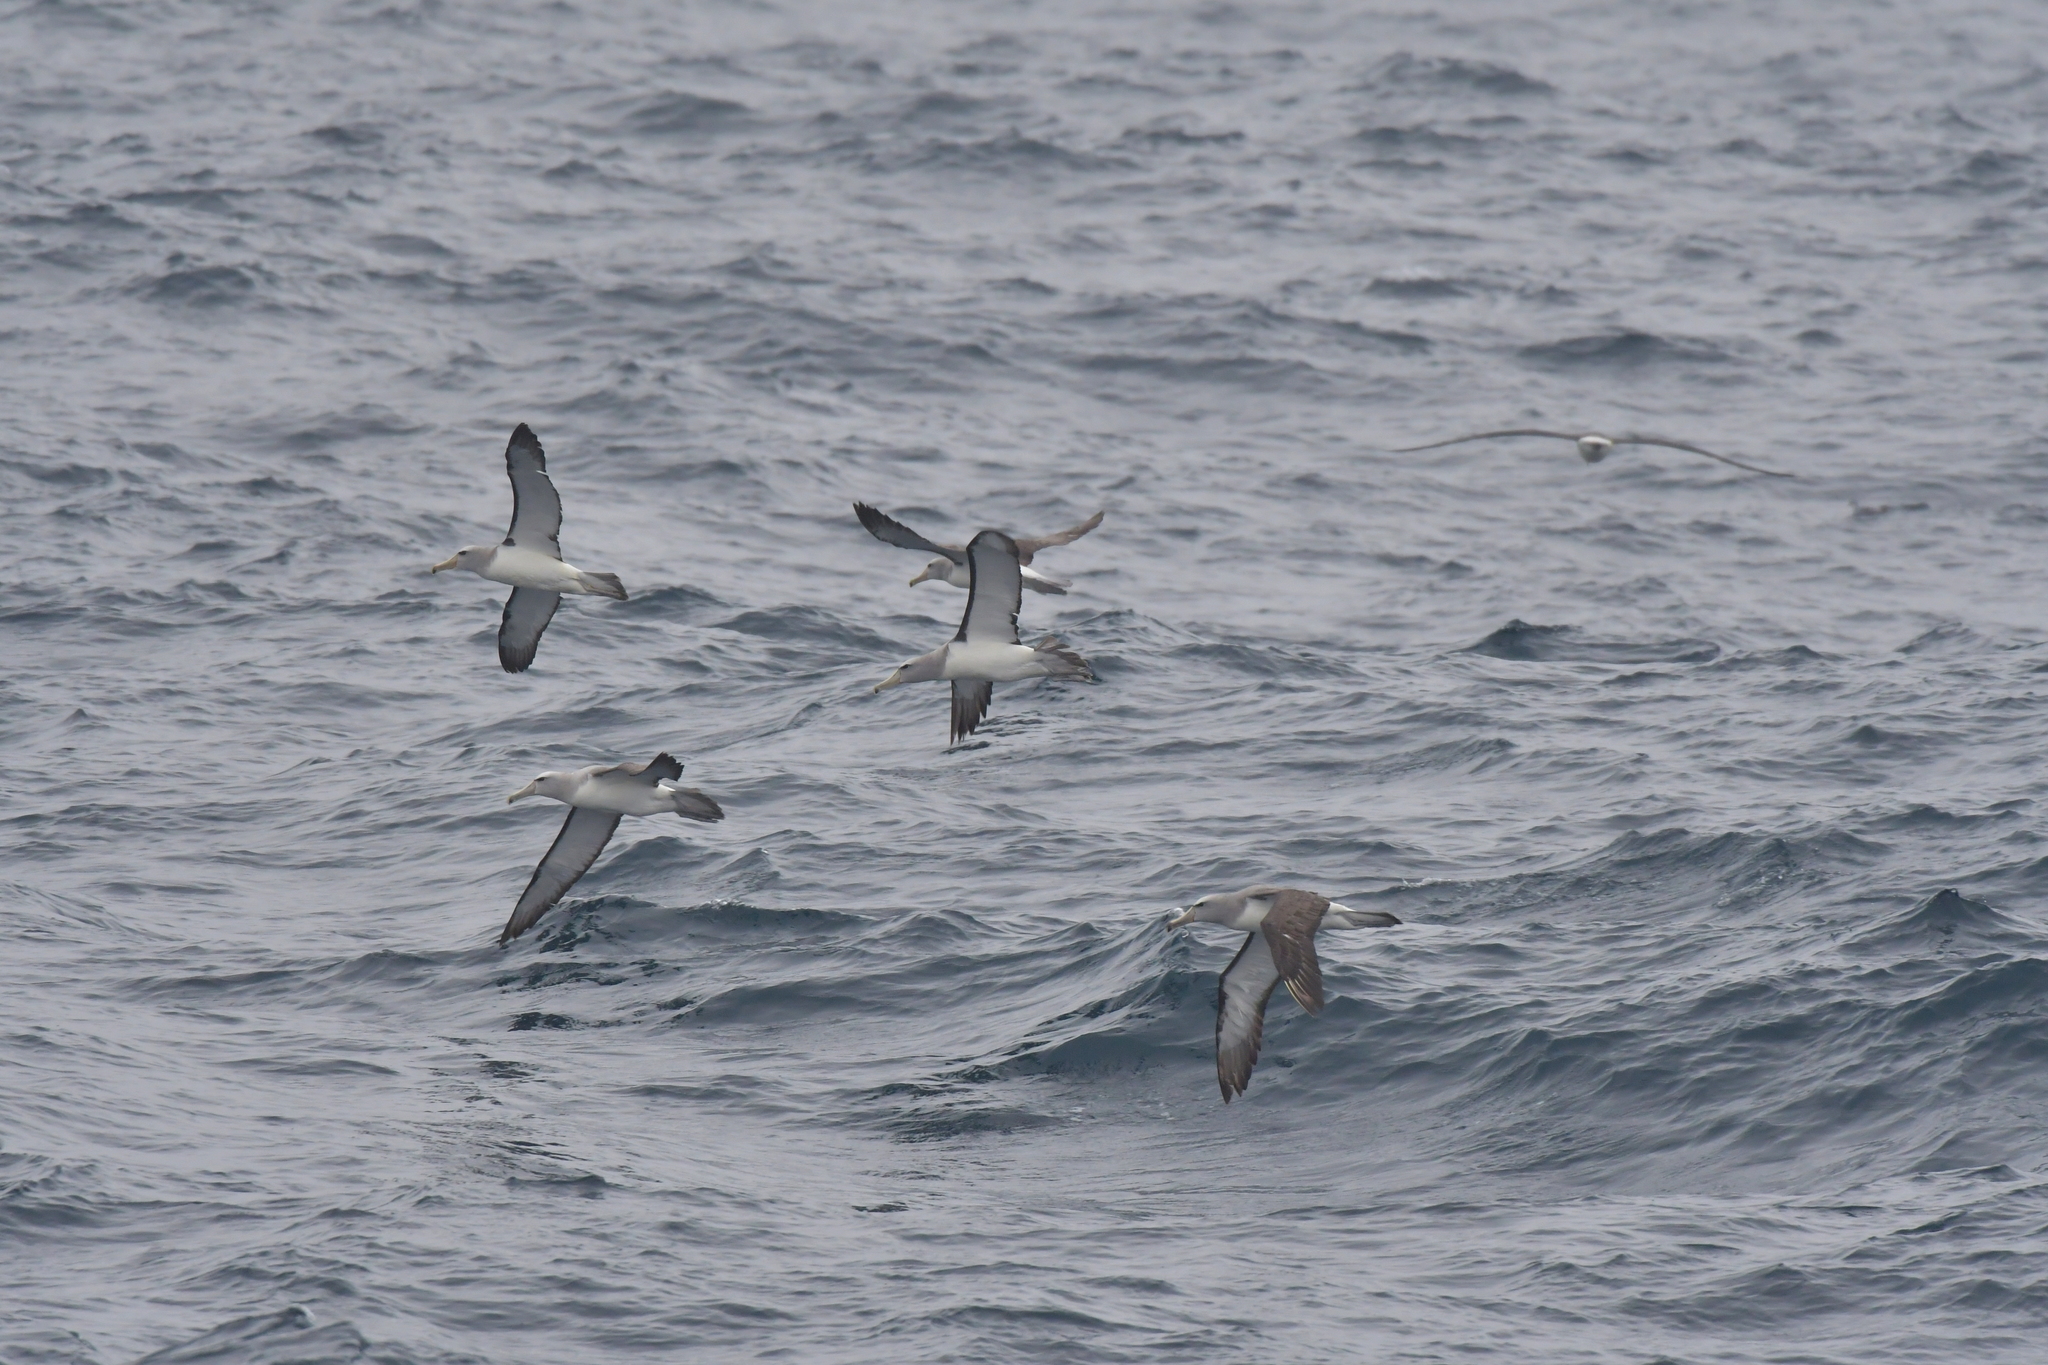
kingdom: Animalia
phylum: Chordata
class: Aves
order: Procellariiformes
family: Diomedeidae
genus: Thalassarche
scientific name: Thalassarche salvini
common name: Salvin's albatross
